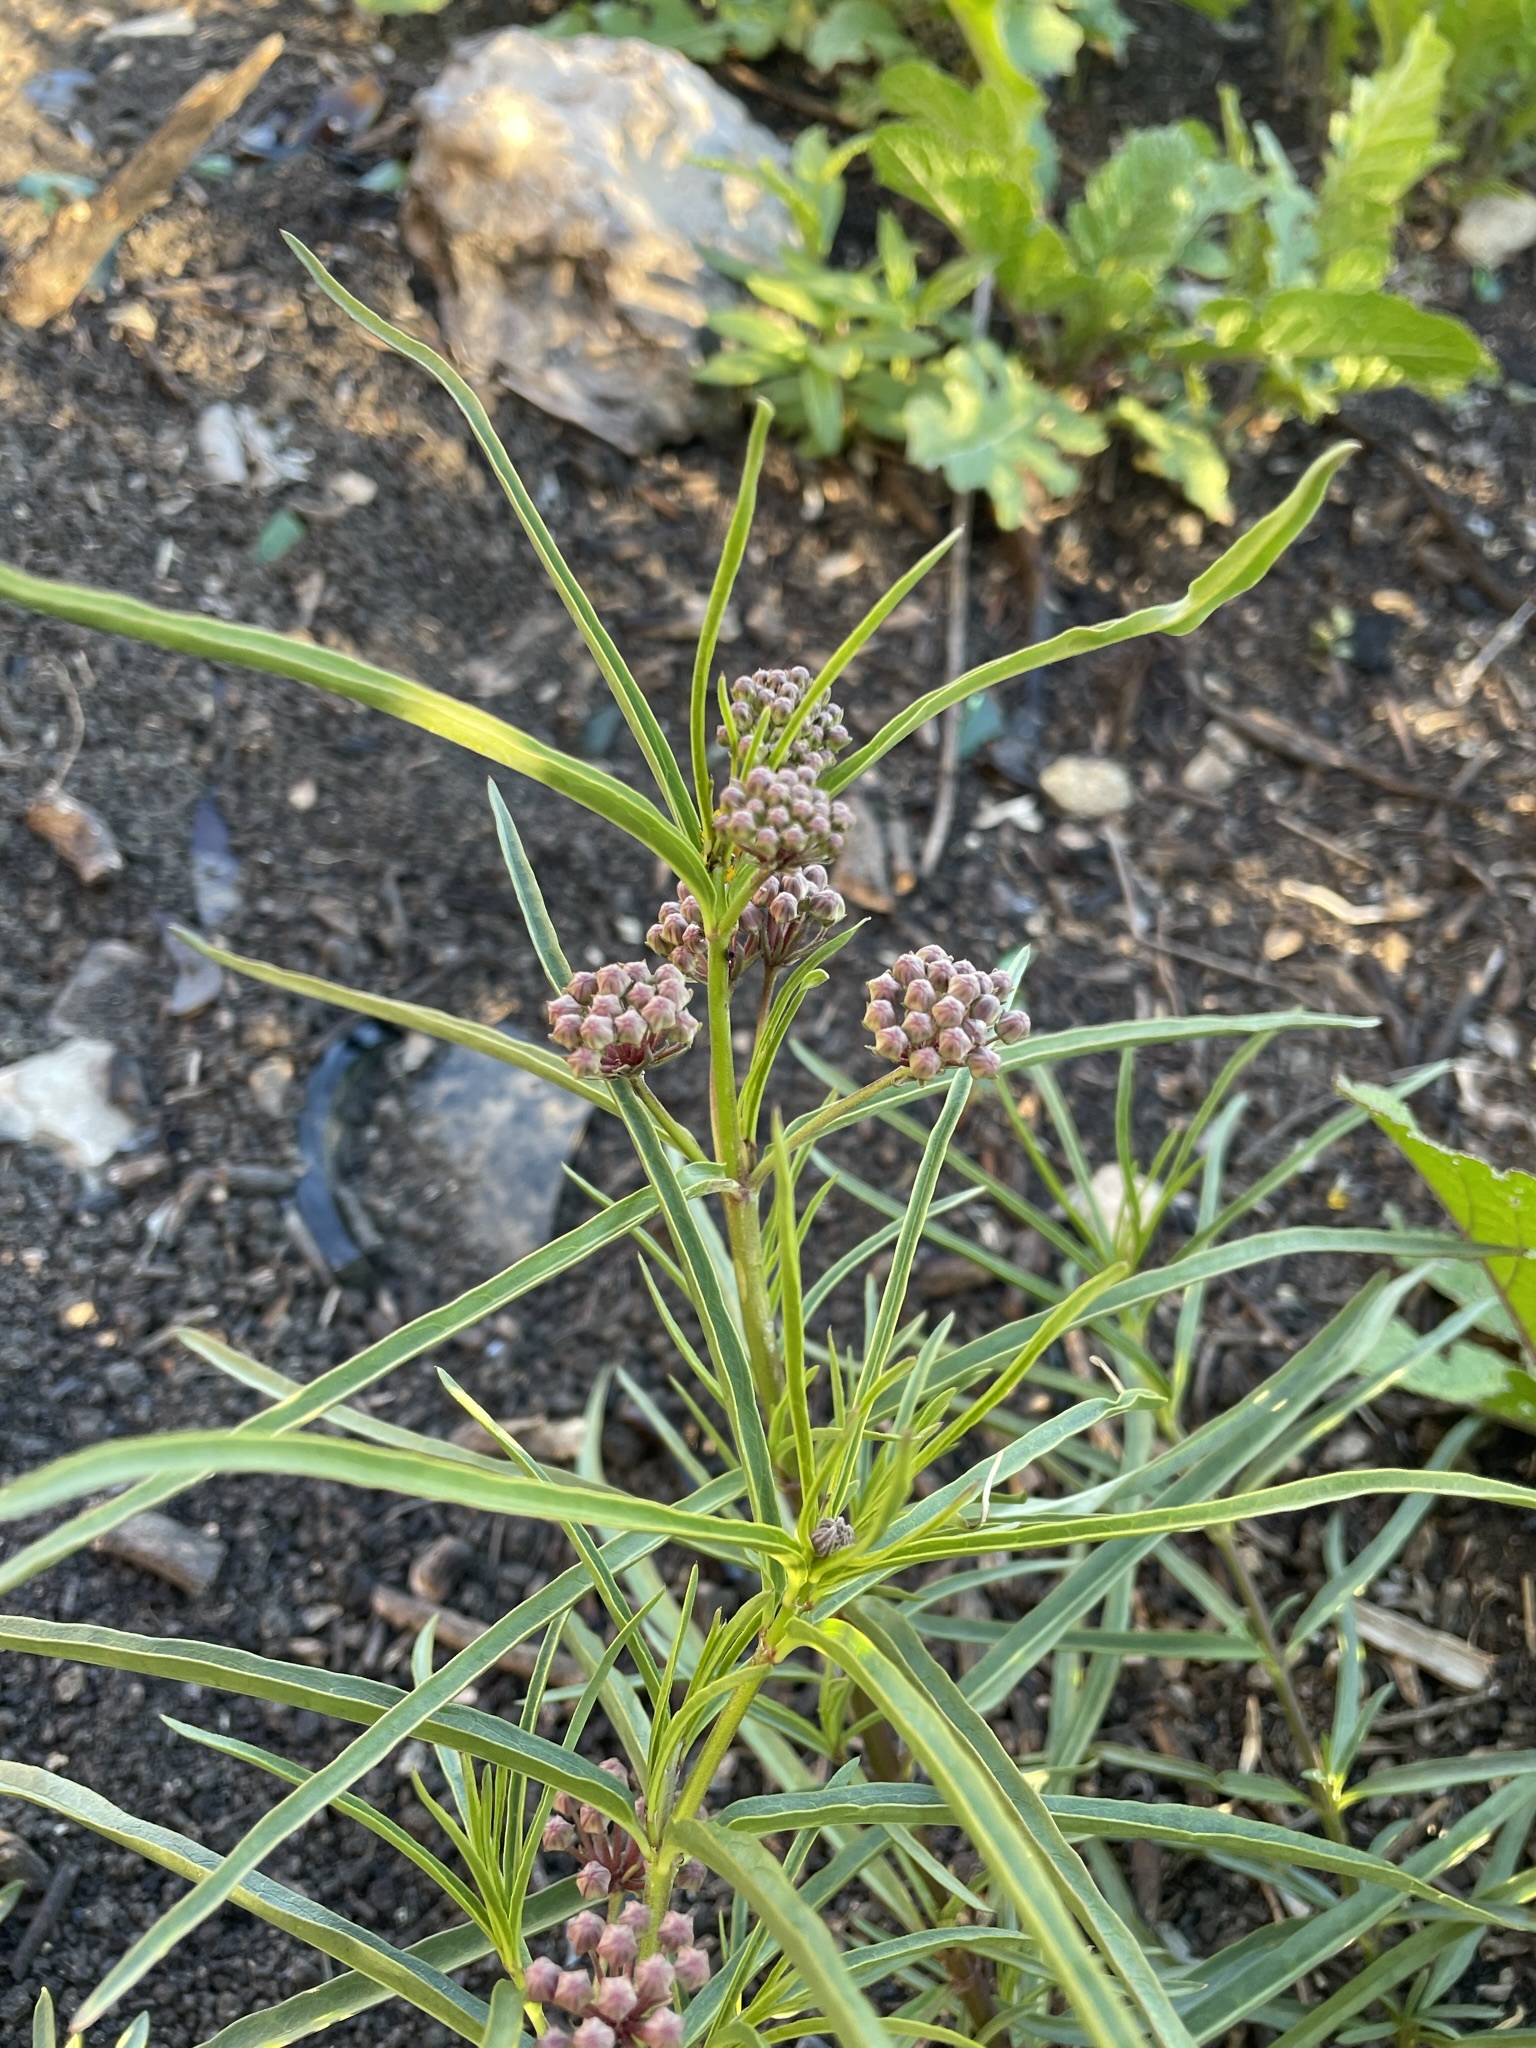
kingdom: Plantae
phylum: Tracheophyta
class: Magnoliopsida
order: Gentianales
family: Apocynaceae
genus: Asclepias
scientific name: Asclepias fascicularis
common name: Mexican milkweed
